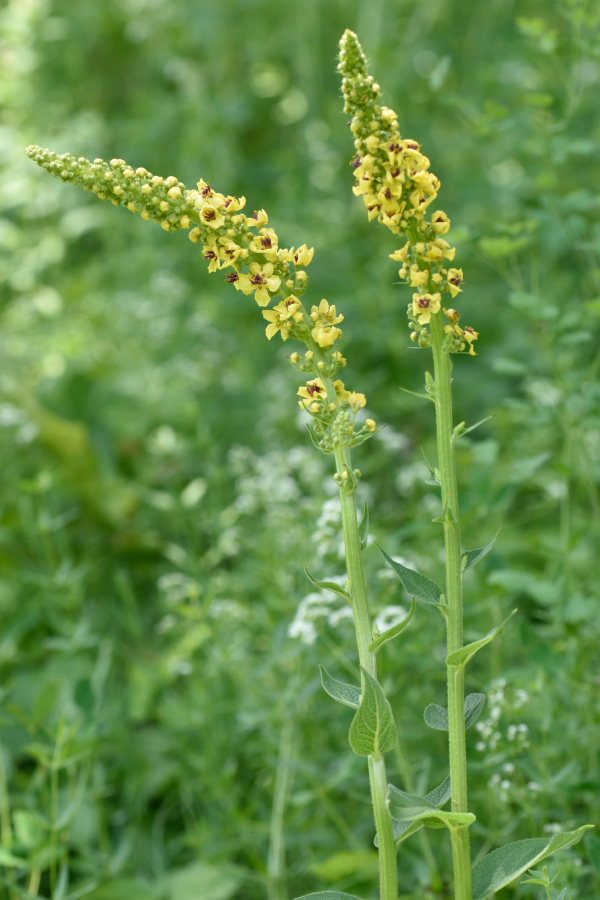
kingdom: Plantae
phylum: Tracheophyta
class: Magnoliopsida
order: Lamiales
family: Scrophulariaceae
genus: Verbascum
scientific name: Verbascum nigrum
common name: Dark mullein
